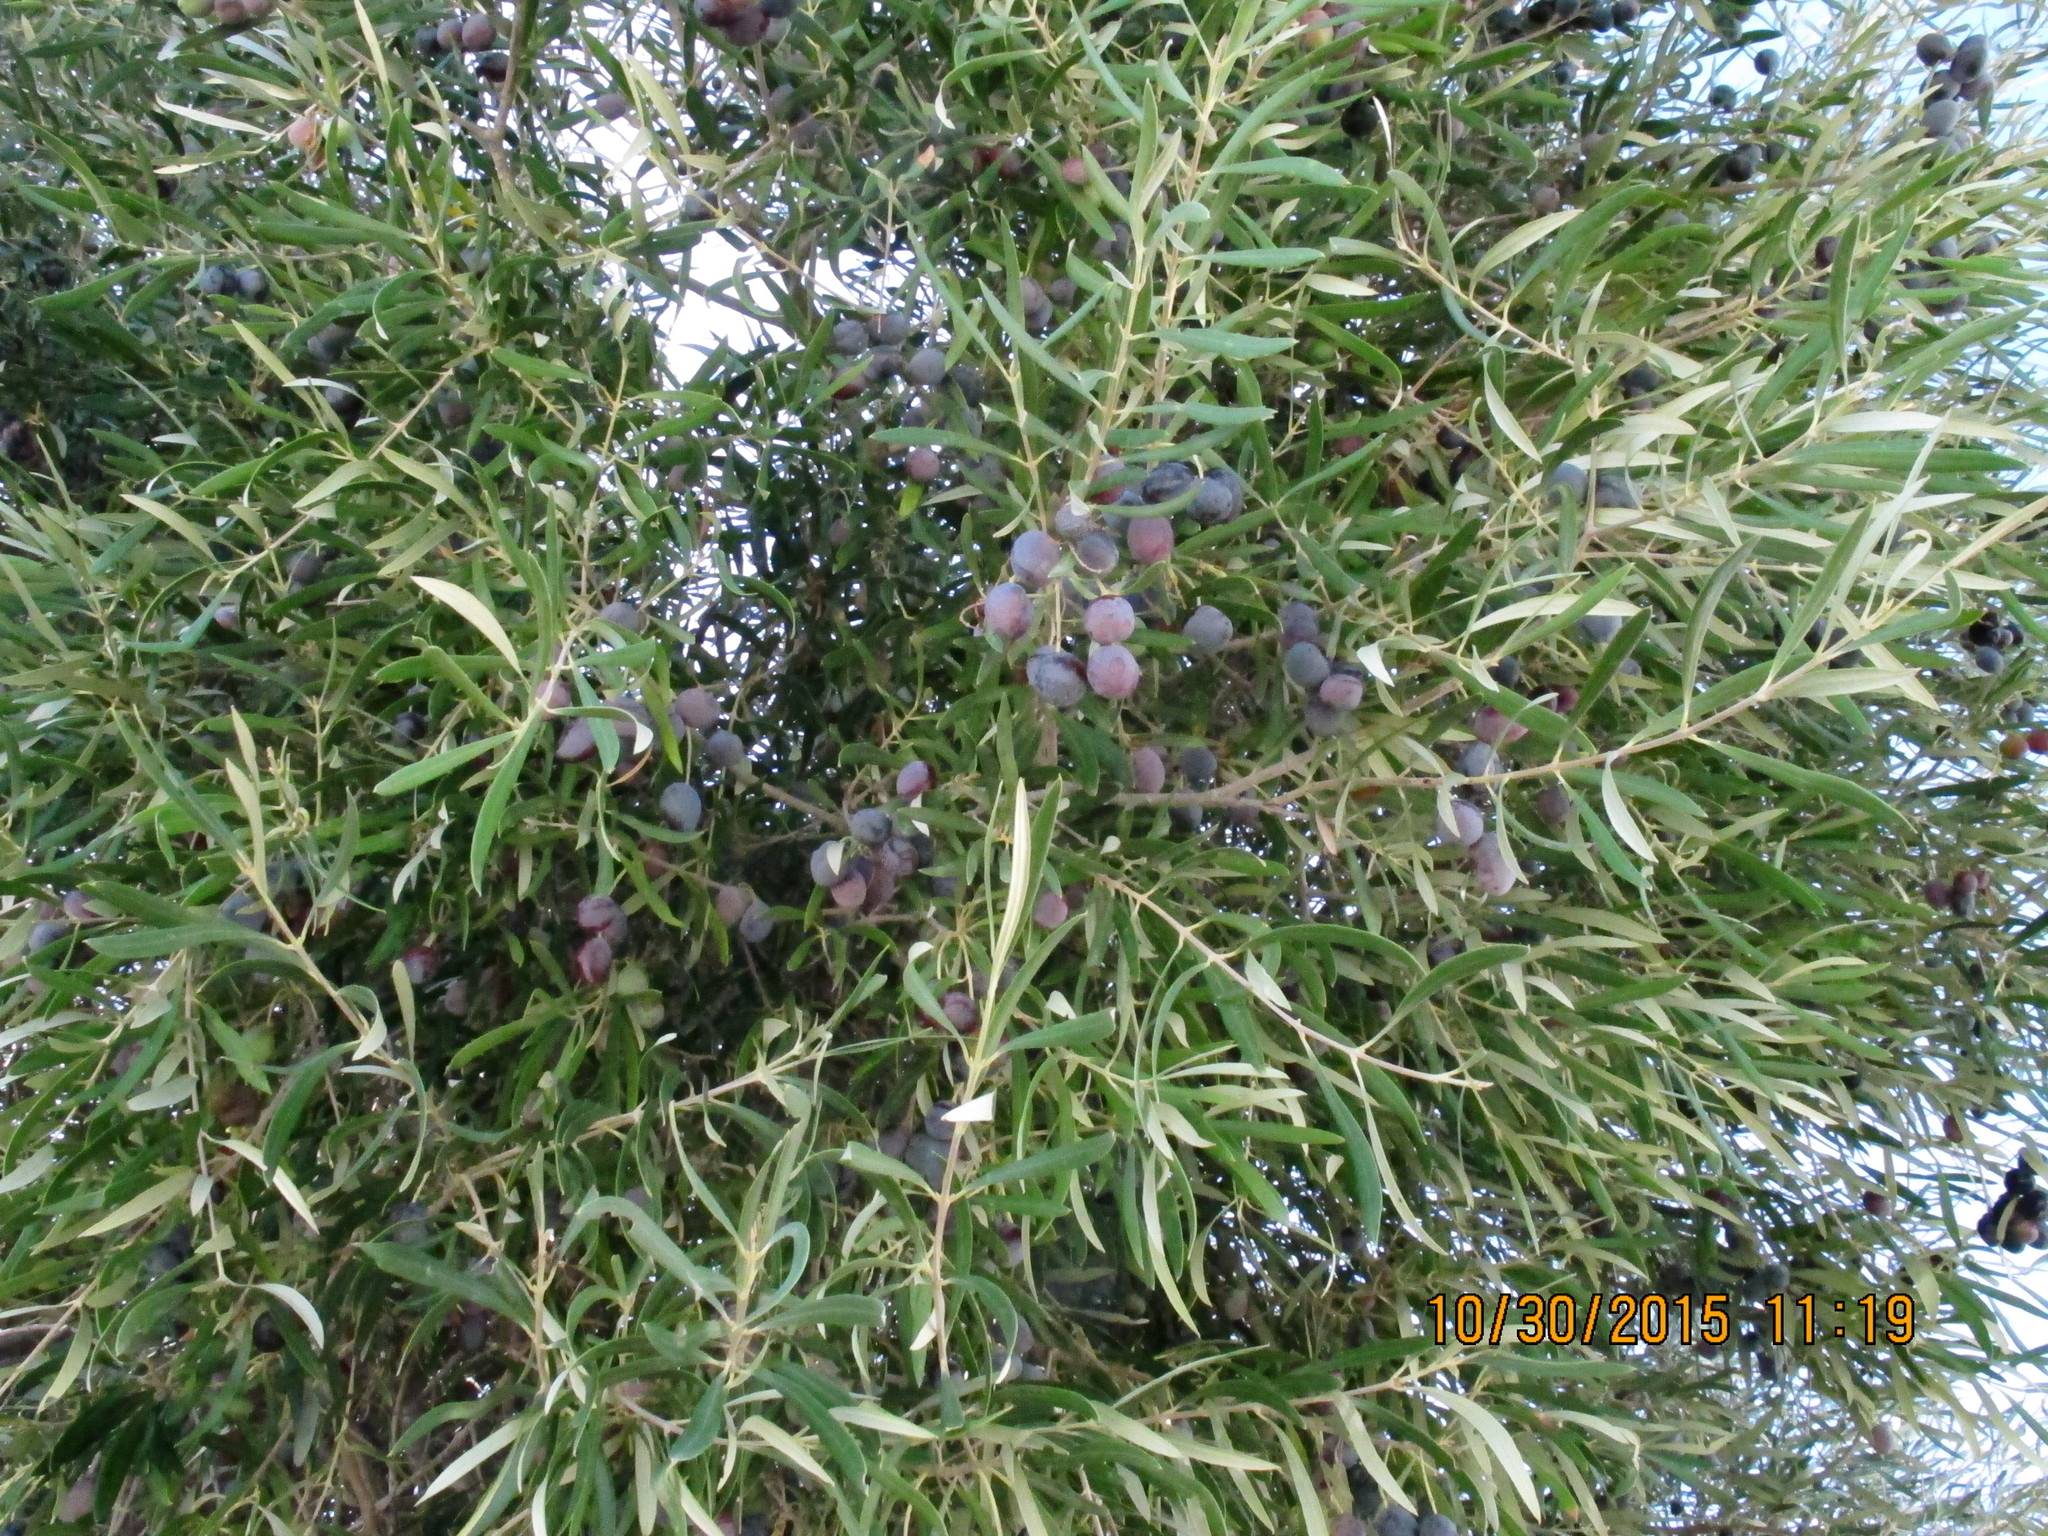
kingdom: Plantae
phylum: Tracheophyta
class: Magnoliopsida
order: Lamiales
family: Oleaceae
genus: Olea
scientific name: Olea europaea
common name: Olive
